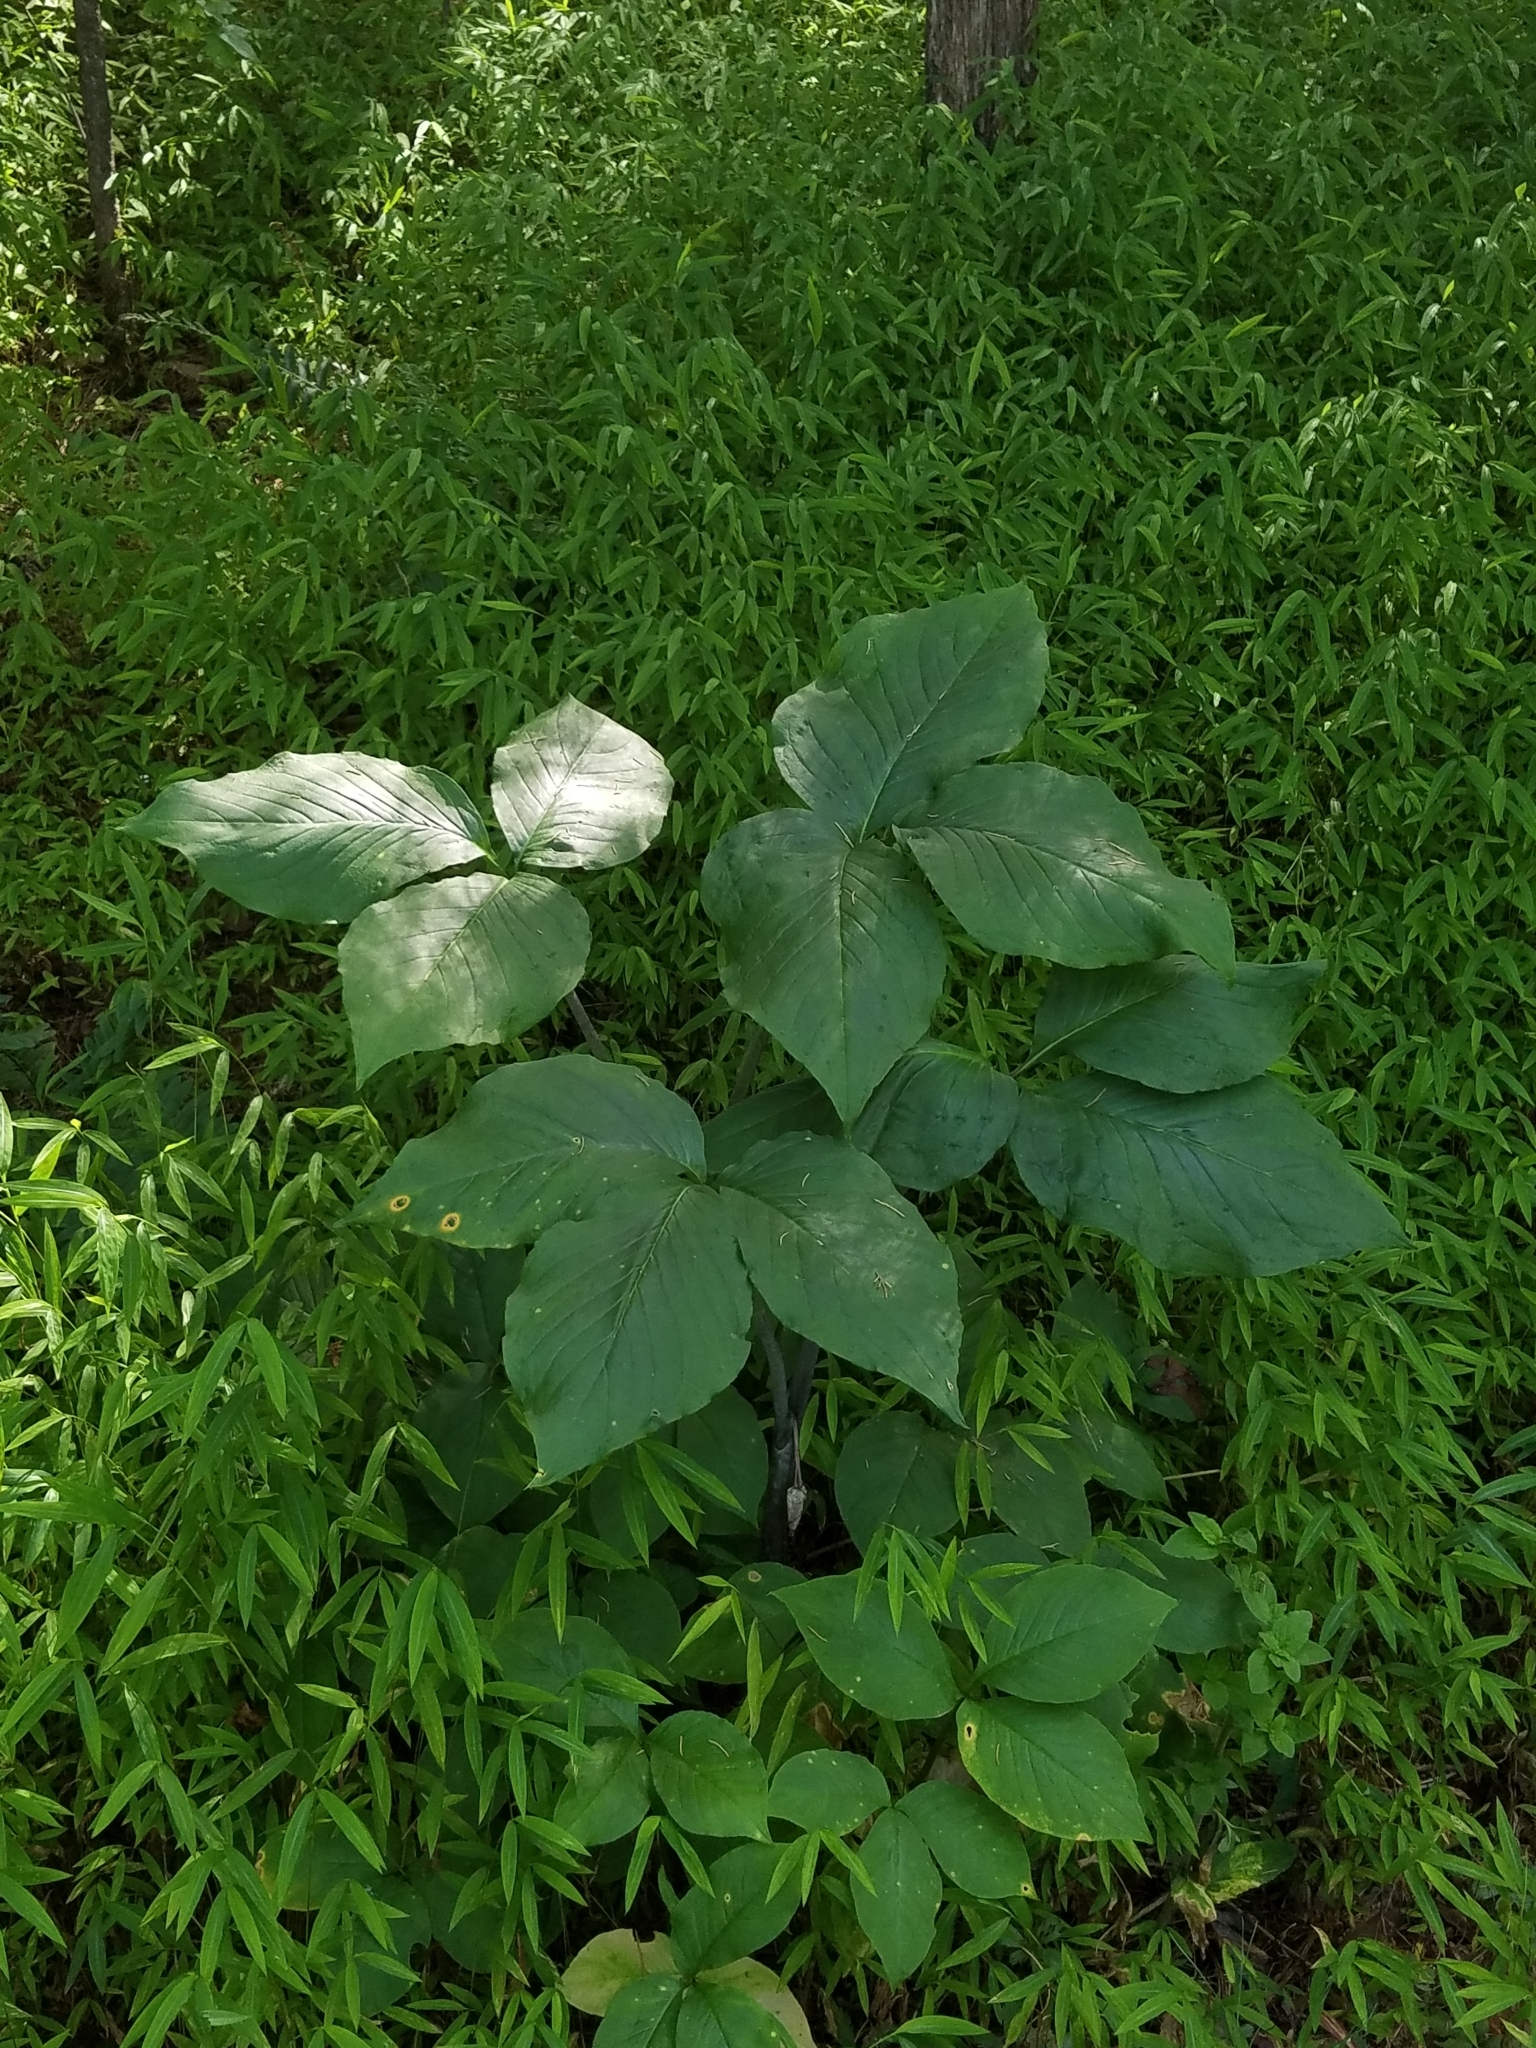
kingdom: Plantae
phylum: Tracheophyta
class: Liliopsida
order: Alismatales
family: Araceae
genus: Arisaema
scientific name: Arisaema triphyllum
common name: Jack-in-the-pulpit
